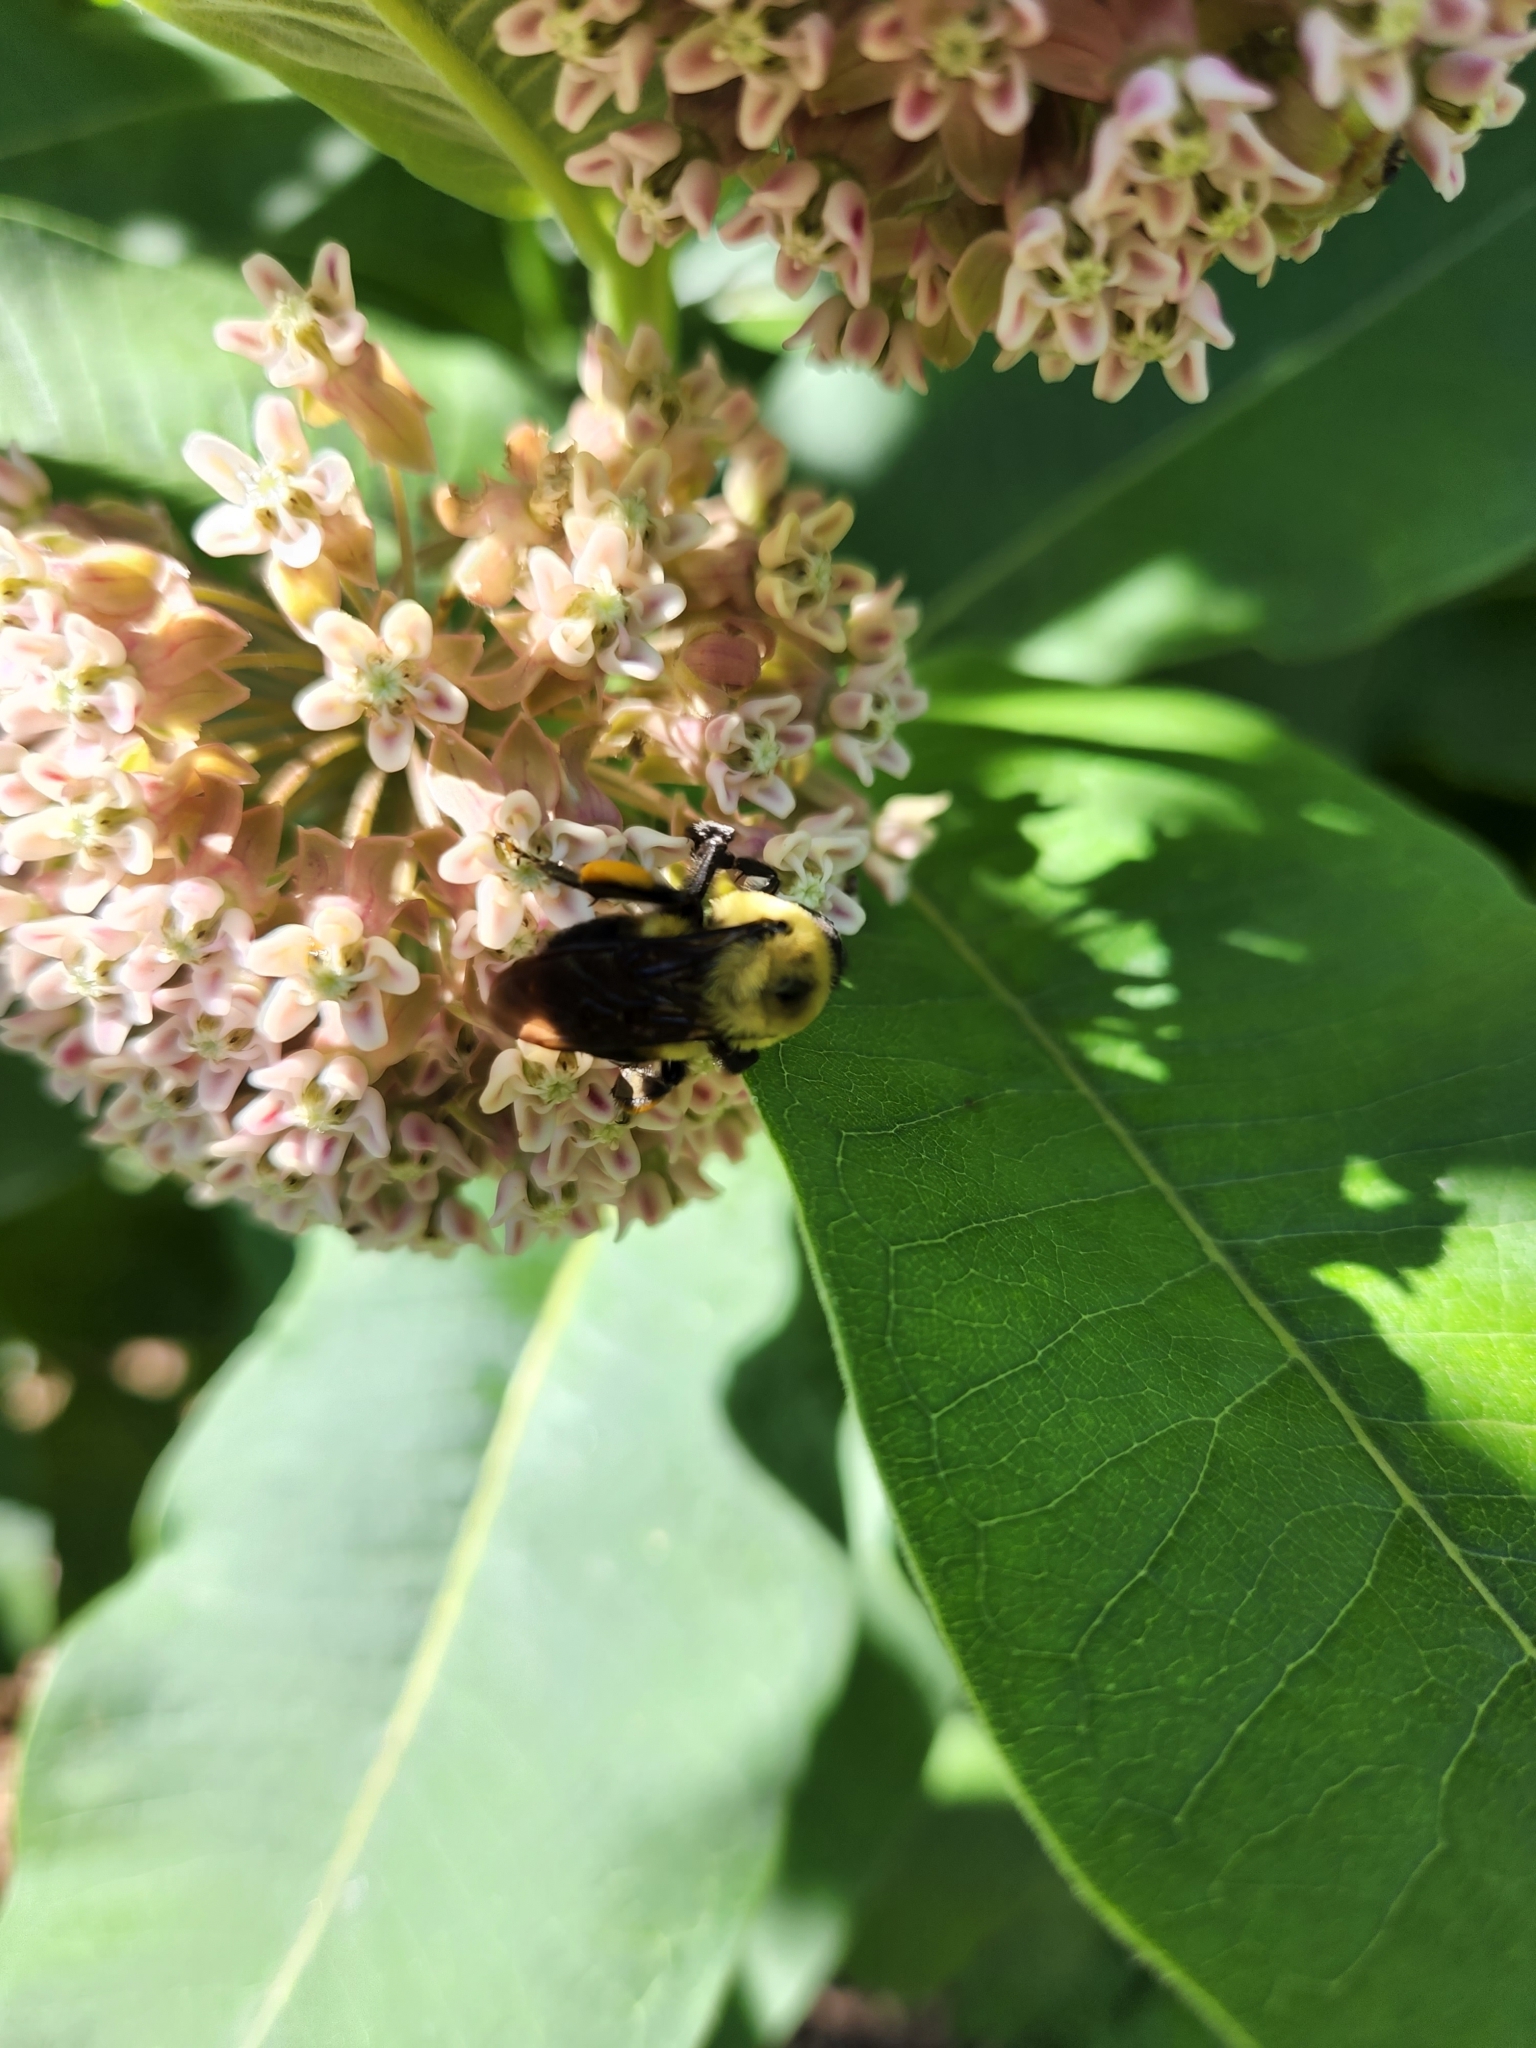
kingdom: Animalia
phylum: Arthropoda
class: Insecta
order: Hymenoptera
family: Apidae
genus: Bombus
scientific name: Bombus griseocollis
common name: Brown-belted bumble bee
